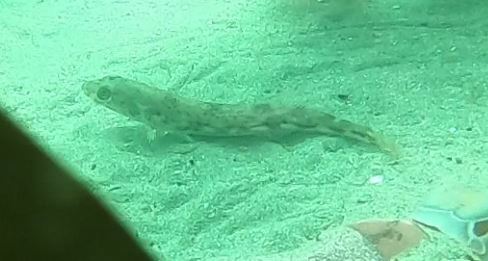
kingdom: Animalia
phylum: Chordata
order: Scorpaeniformes
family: Hexagrammidae
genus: Ophiodon
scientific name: Ophiodon elongatus
